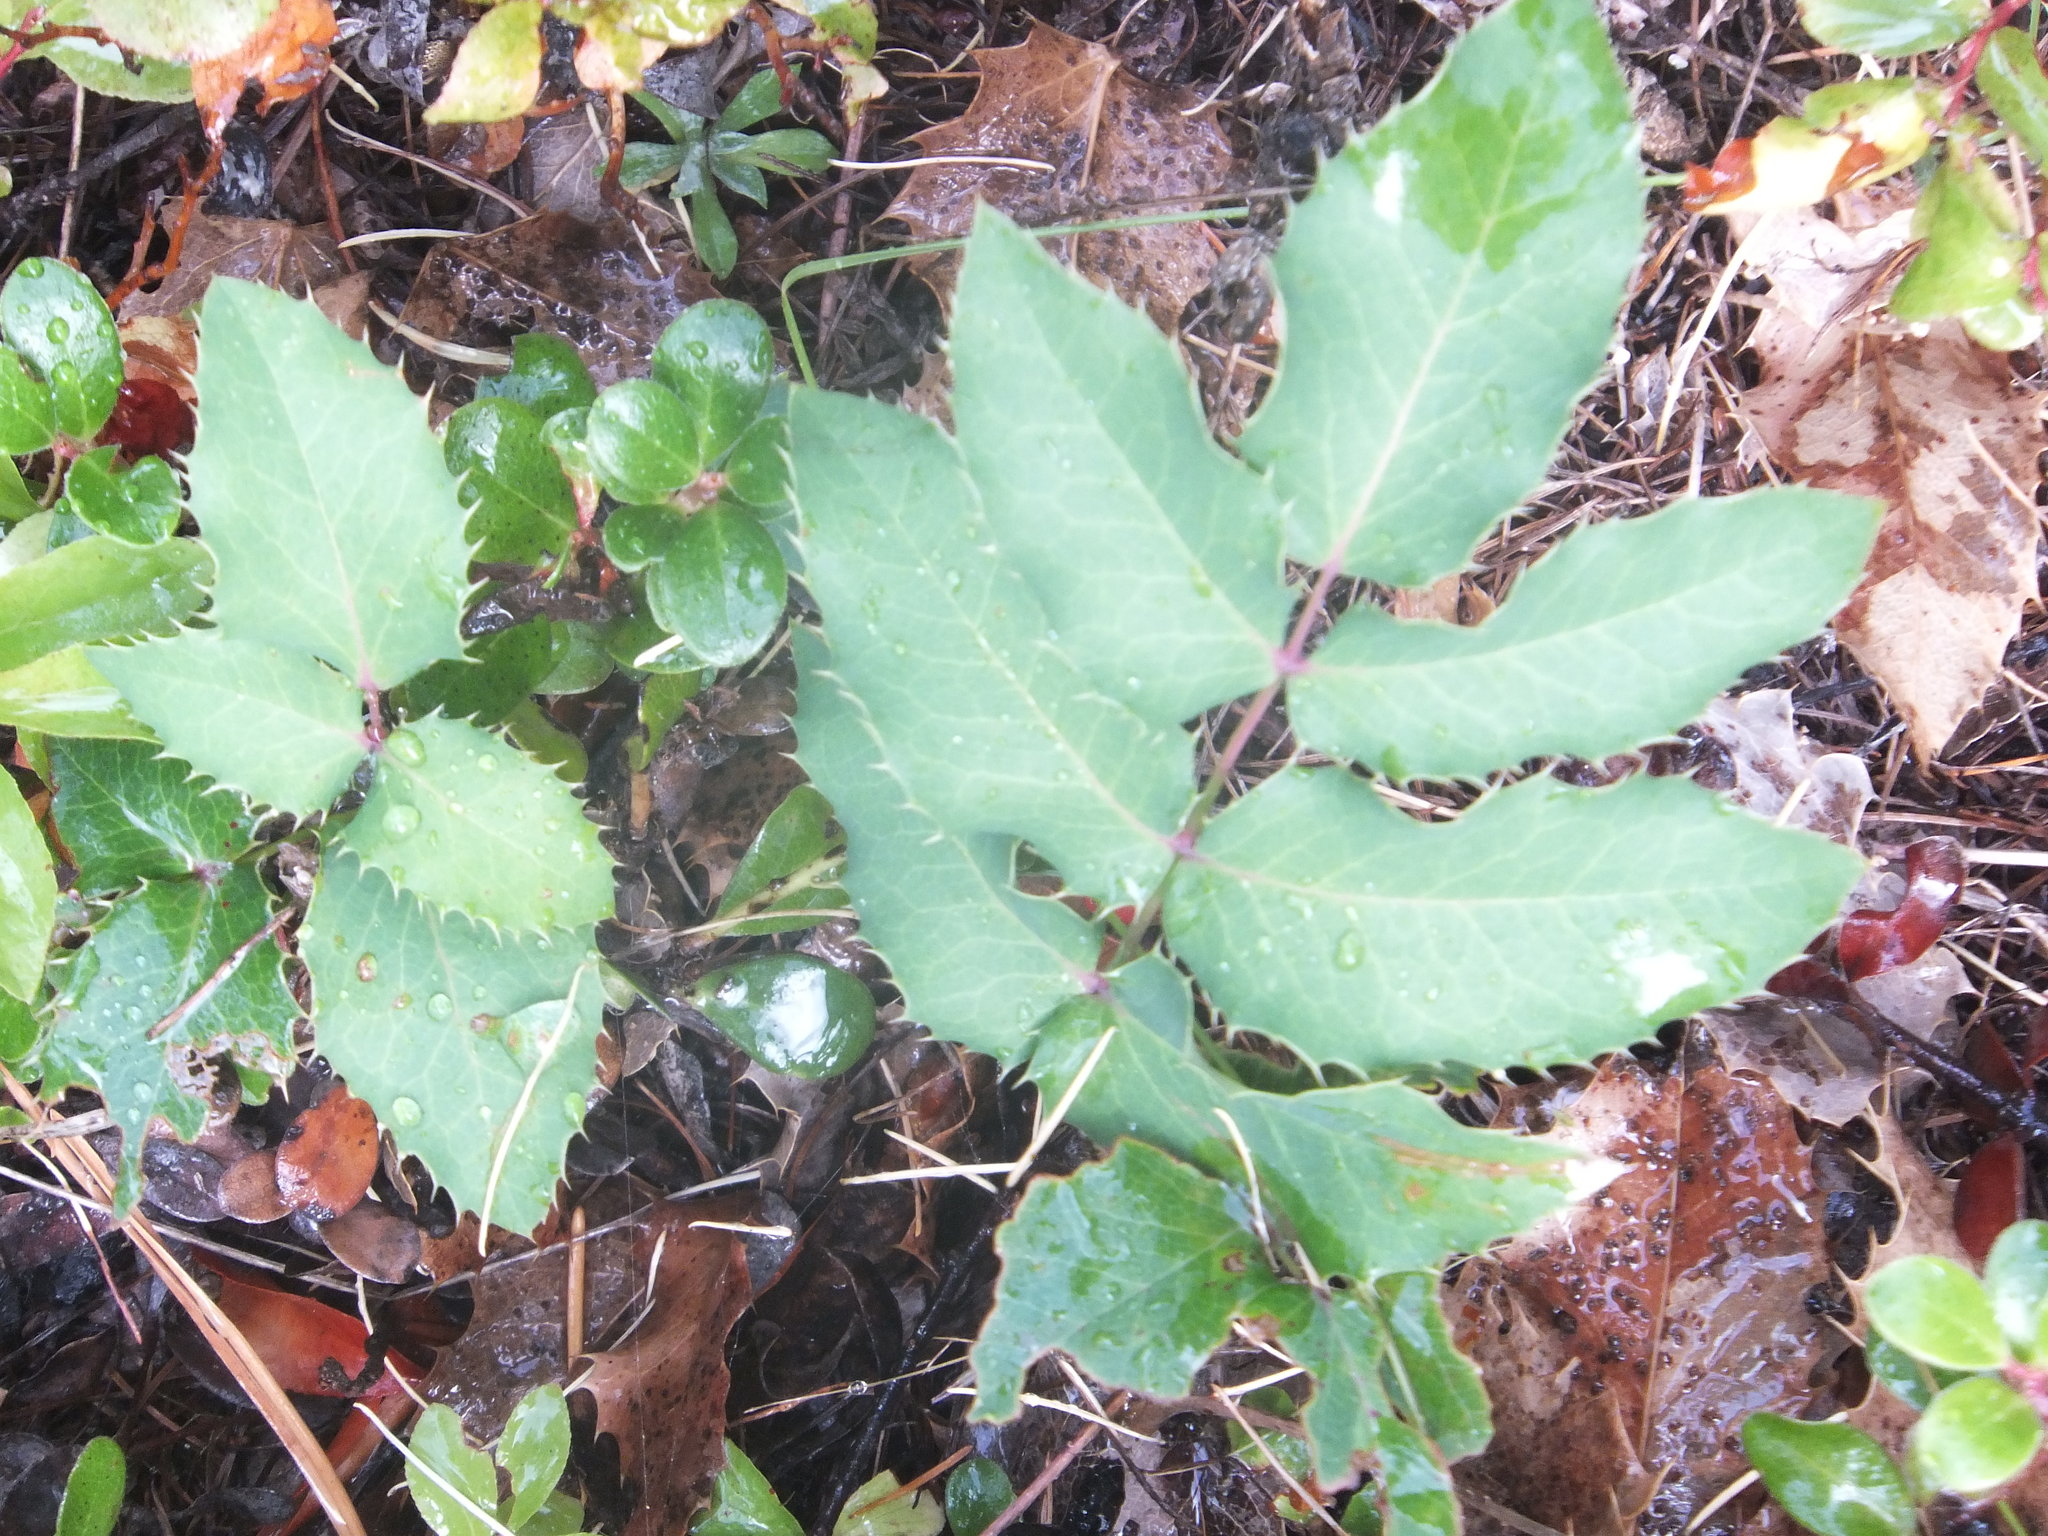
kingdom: Plantae
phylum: Tracheophyta
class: Magnoliopsida
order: Ranunculales
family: Berberidaceae
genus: Mahonia
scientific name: Mahonia repens
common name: Creeping oregon-grape
